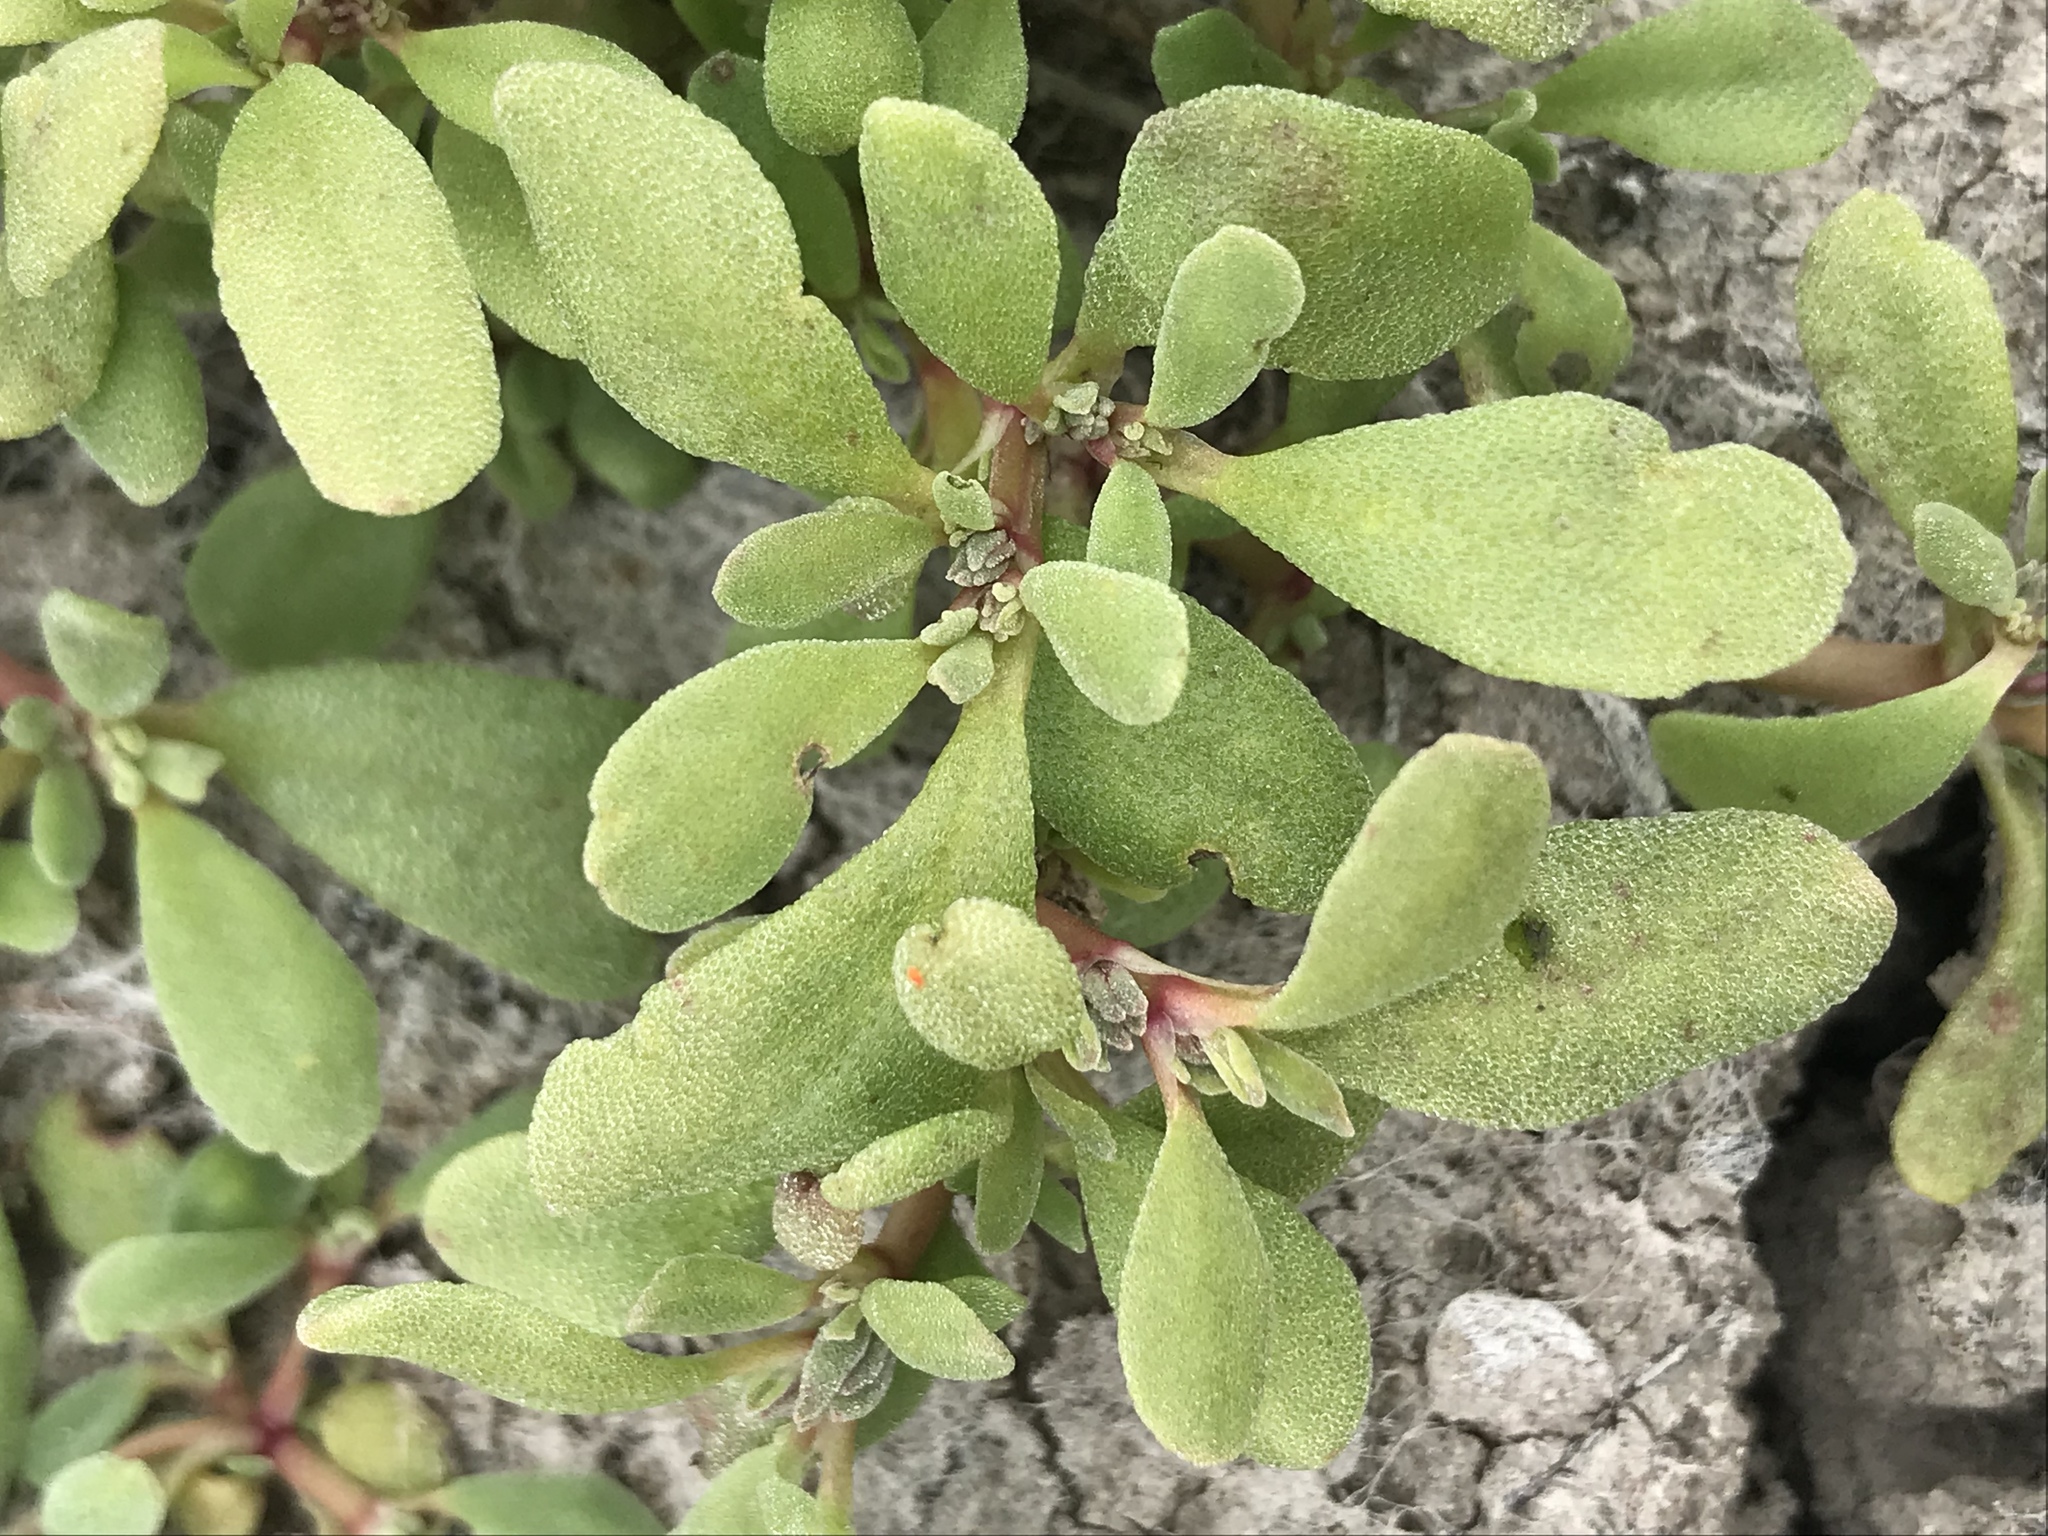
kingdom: Plantae
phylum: Tracheophyta
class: Magnoliopsida
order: Caryophyllales
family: Aizoaceae
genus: Sesuvium
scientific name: Sesuvium revolutifolium
